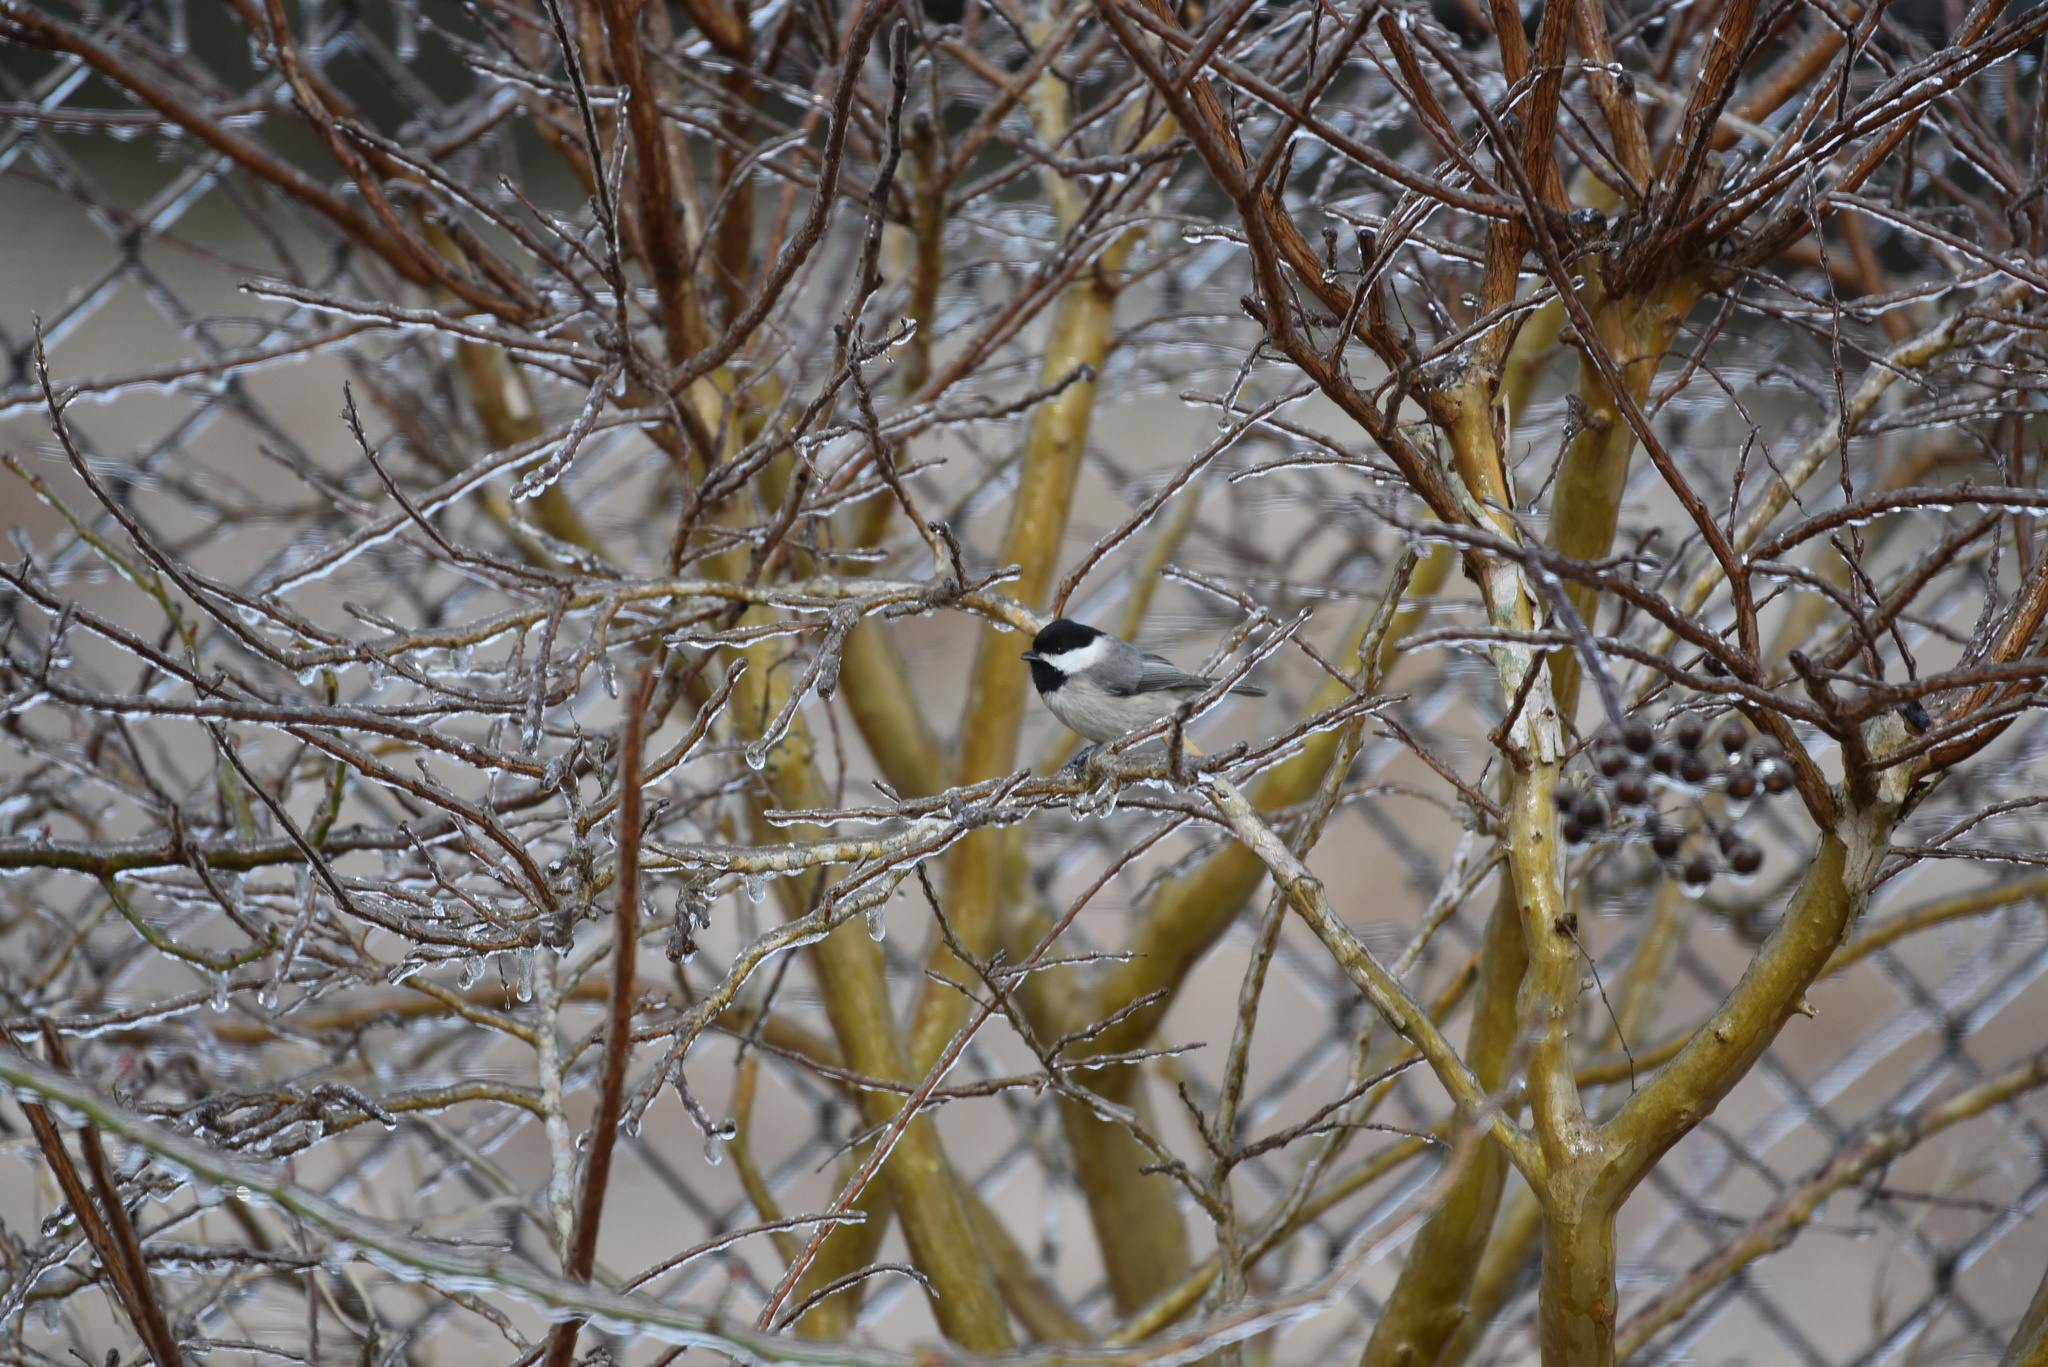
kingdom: Animalia
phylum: Chordata
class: Aves
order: Passeriformes
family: Paridae
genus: Poecile
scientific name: Poecile carolinensis
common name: Carolina chickadee
